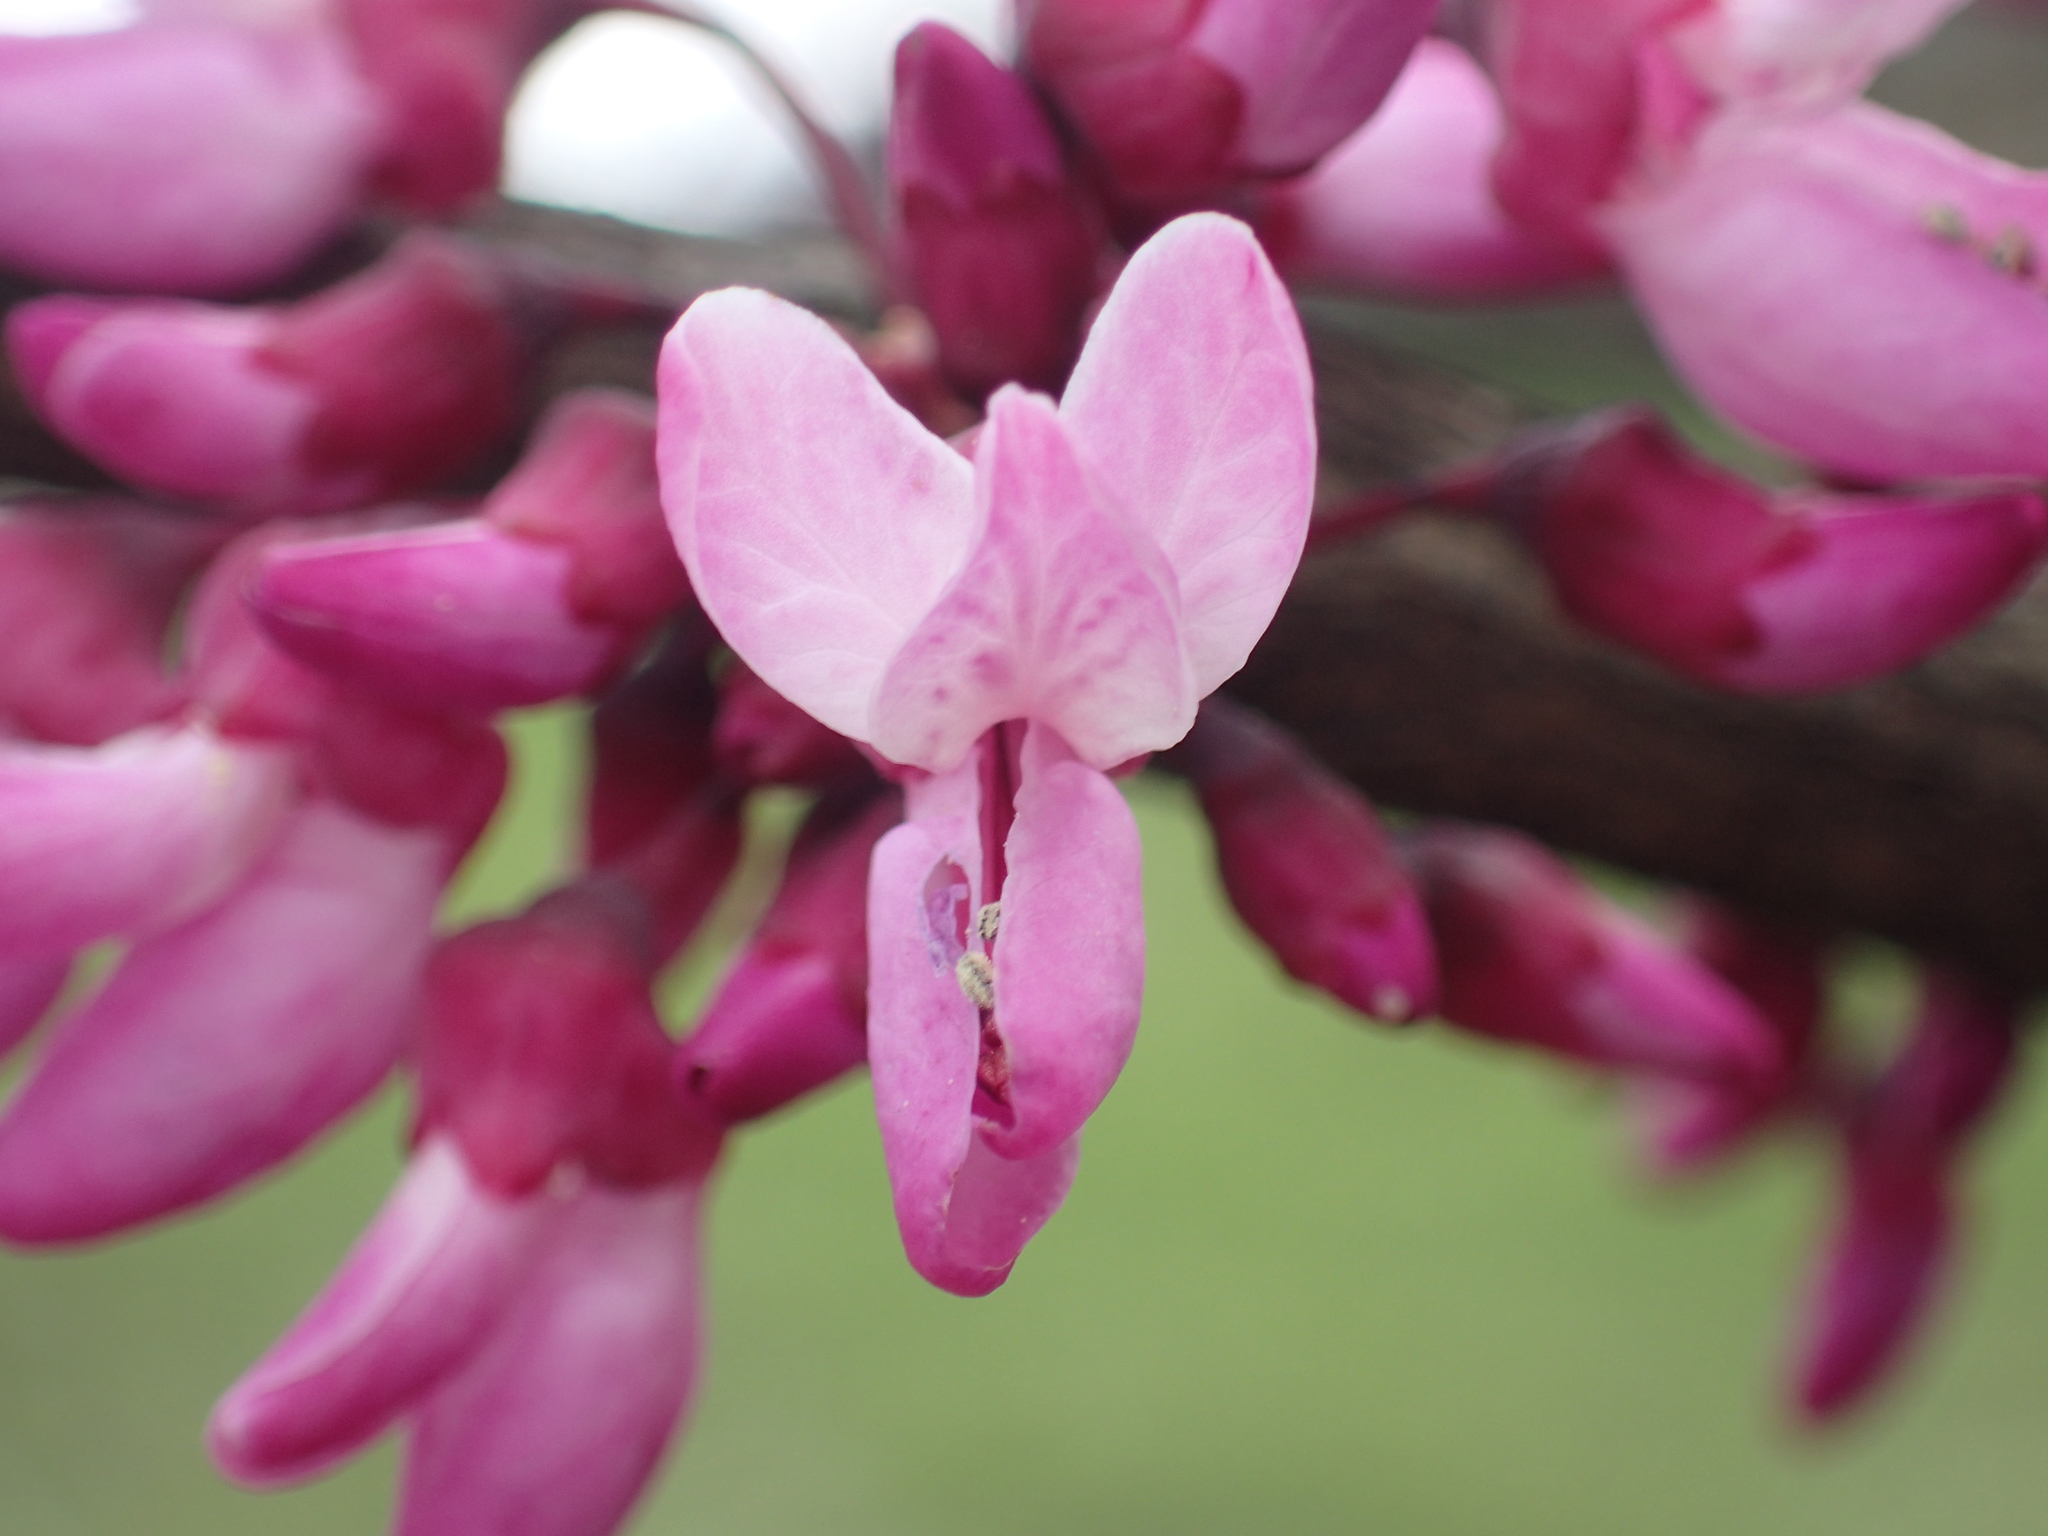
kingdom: Plantae
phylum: Tracheophyta
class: Magnoliopsida
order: Fabales
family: Fabaceae
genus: Cercis
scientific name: Cercis canadensis
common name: Eastern redbud
